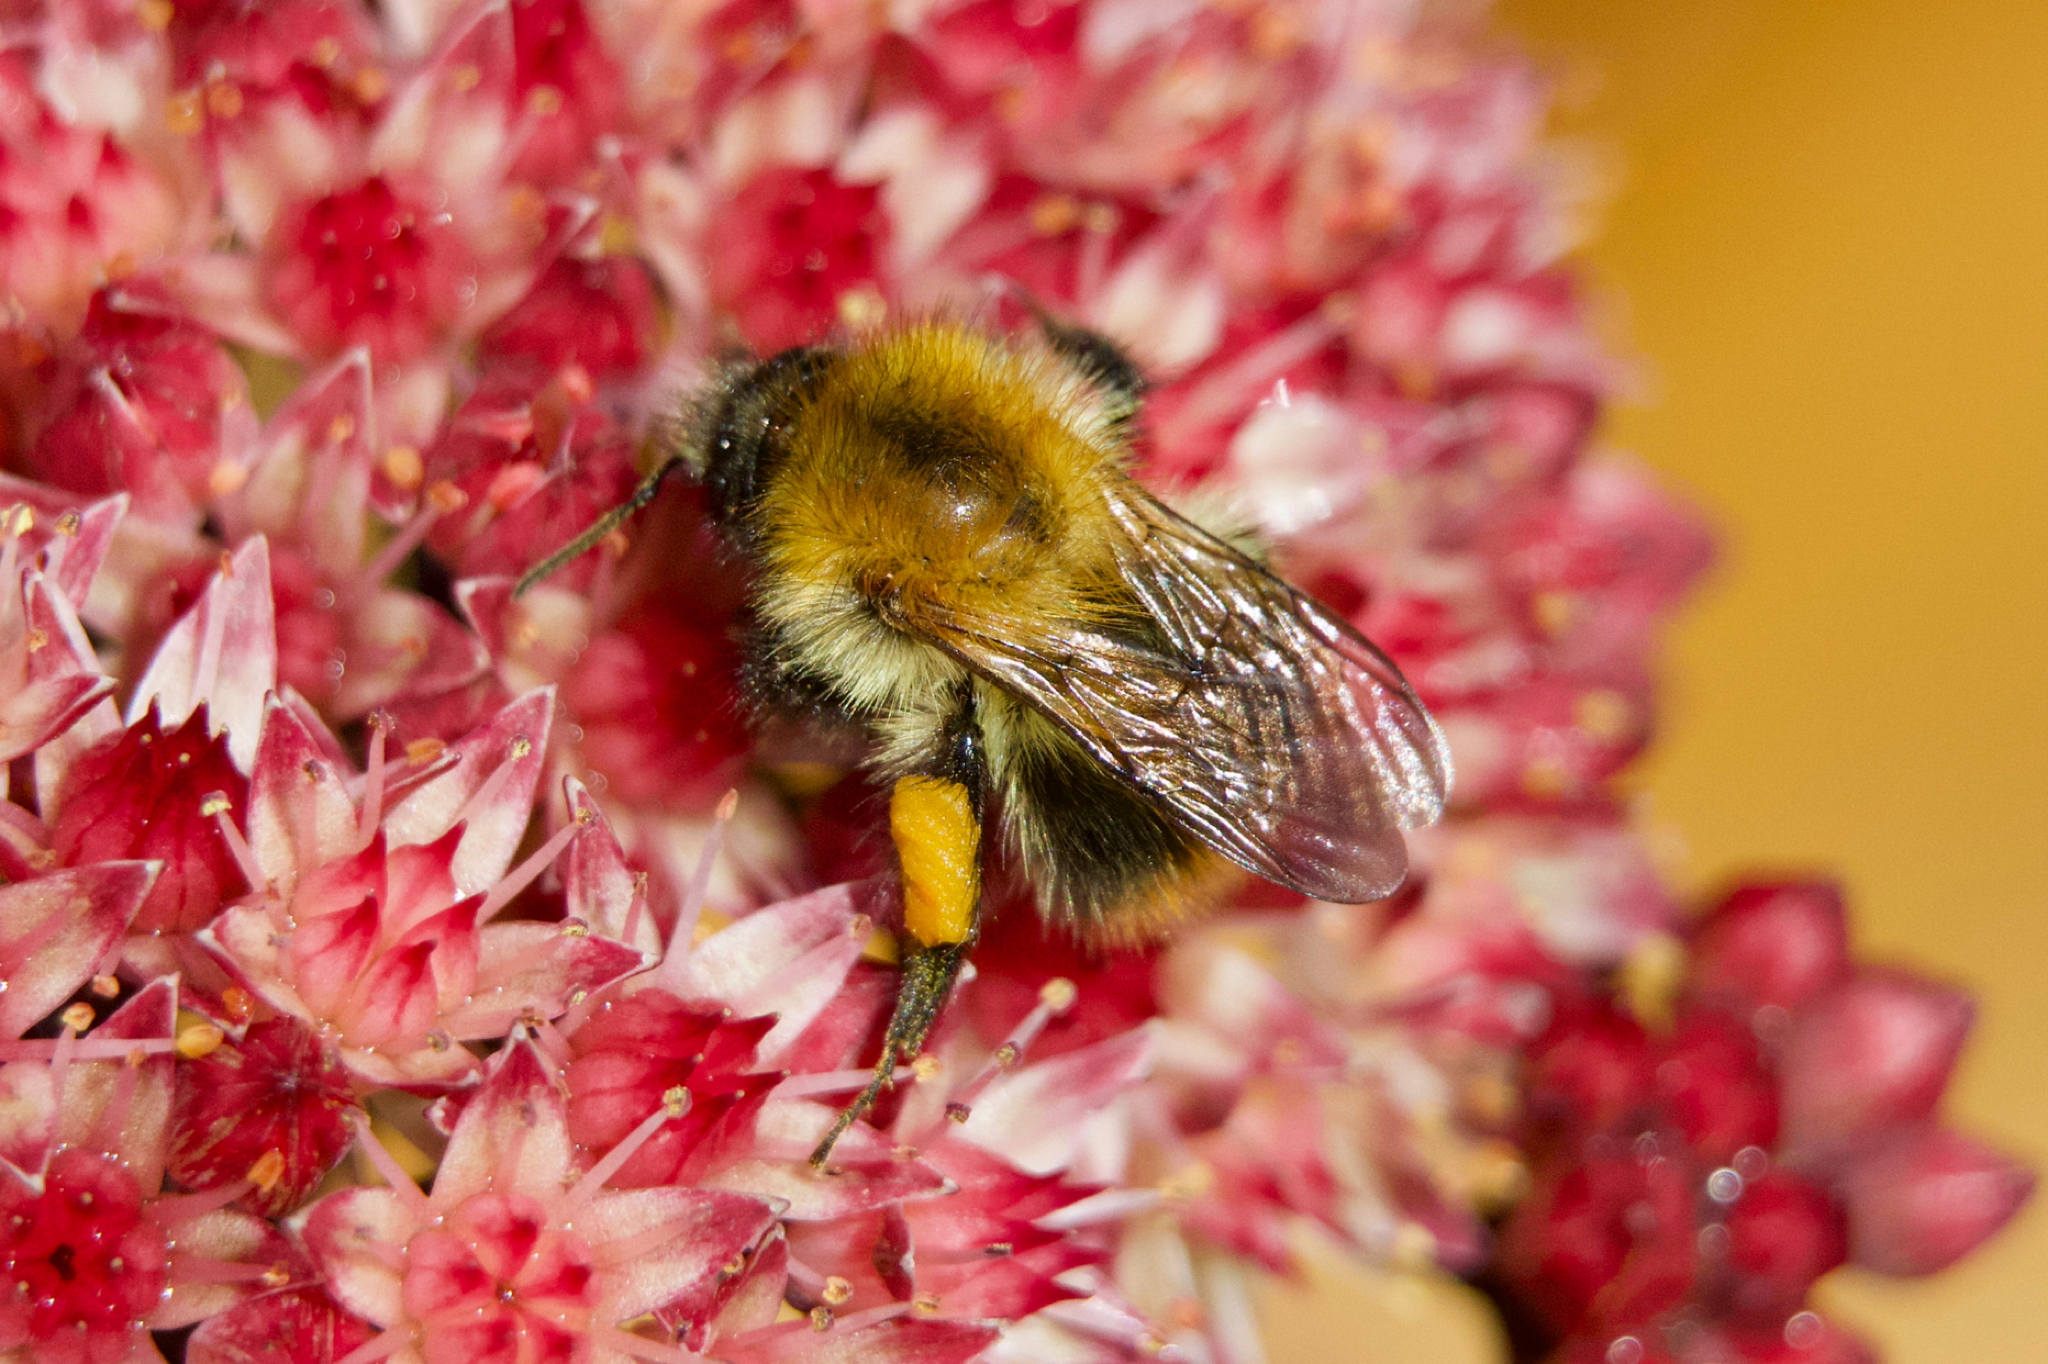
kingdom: Animalia
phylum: Arthropoda
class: Insecta
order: Hymenoptera
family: Apidae
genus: Bombus
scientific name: Bombus pascuorum
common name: Common carder bee
